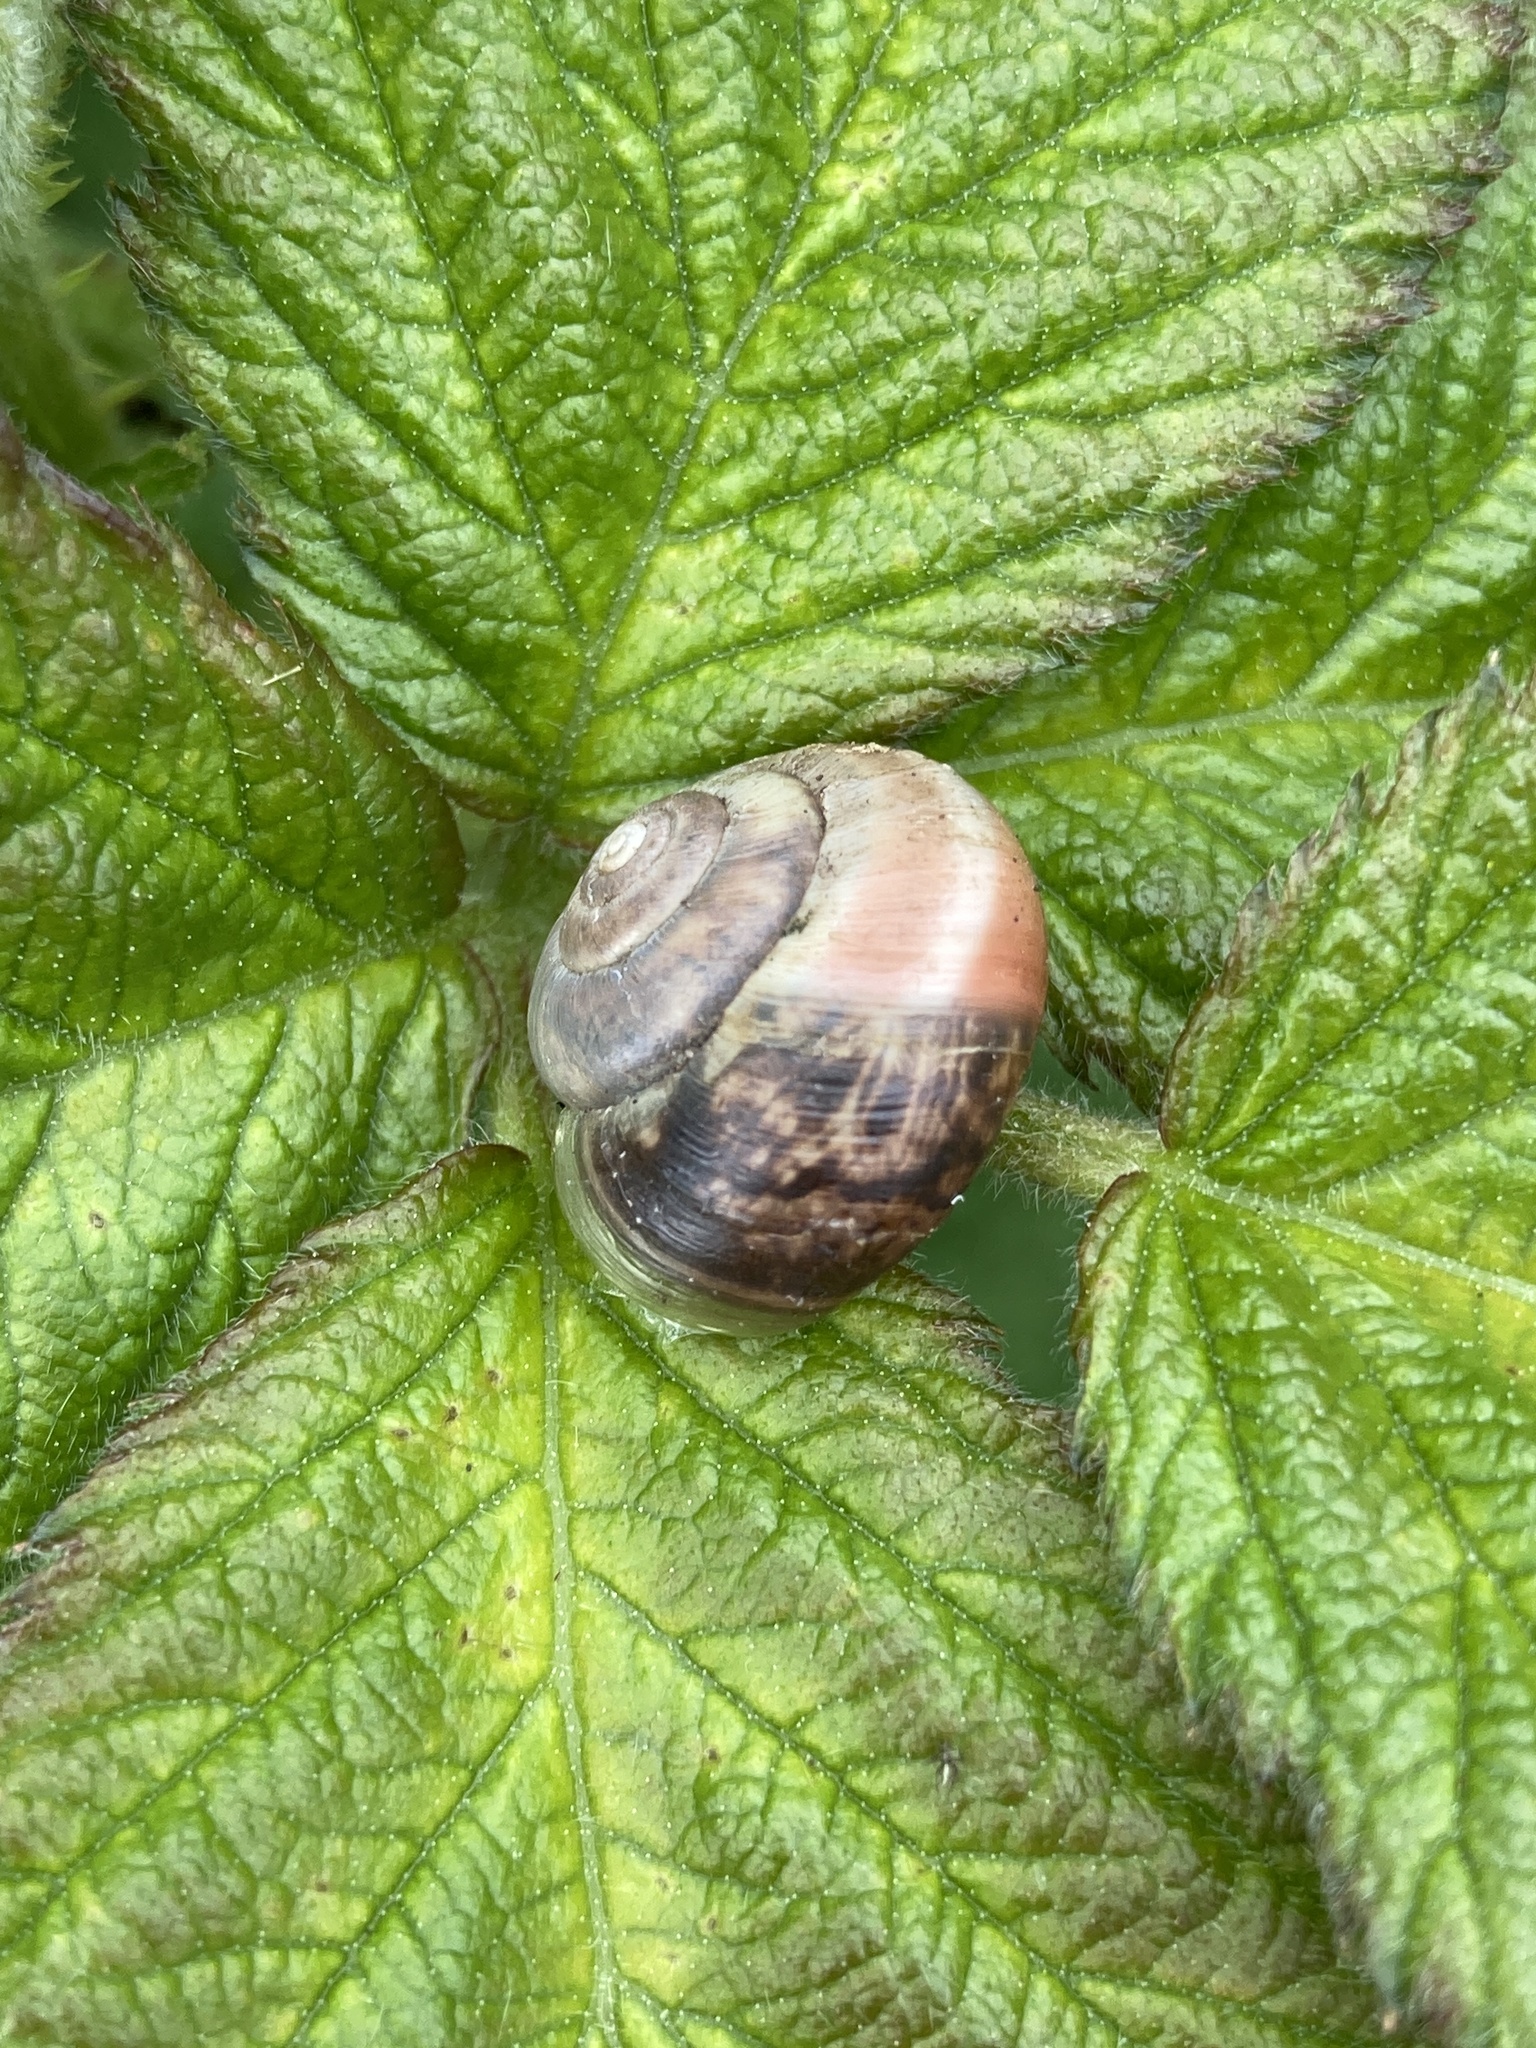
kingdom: Animalia
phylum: Mollusca
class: Gastropoda
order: Stylommatophora
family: Hygromiidae
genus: Monacha
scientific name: Monacha cantiana
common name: Kentish snail
